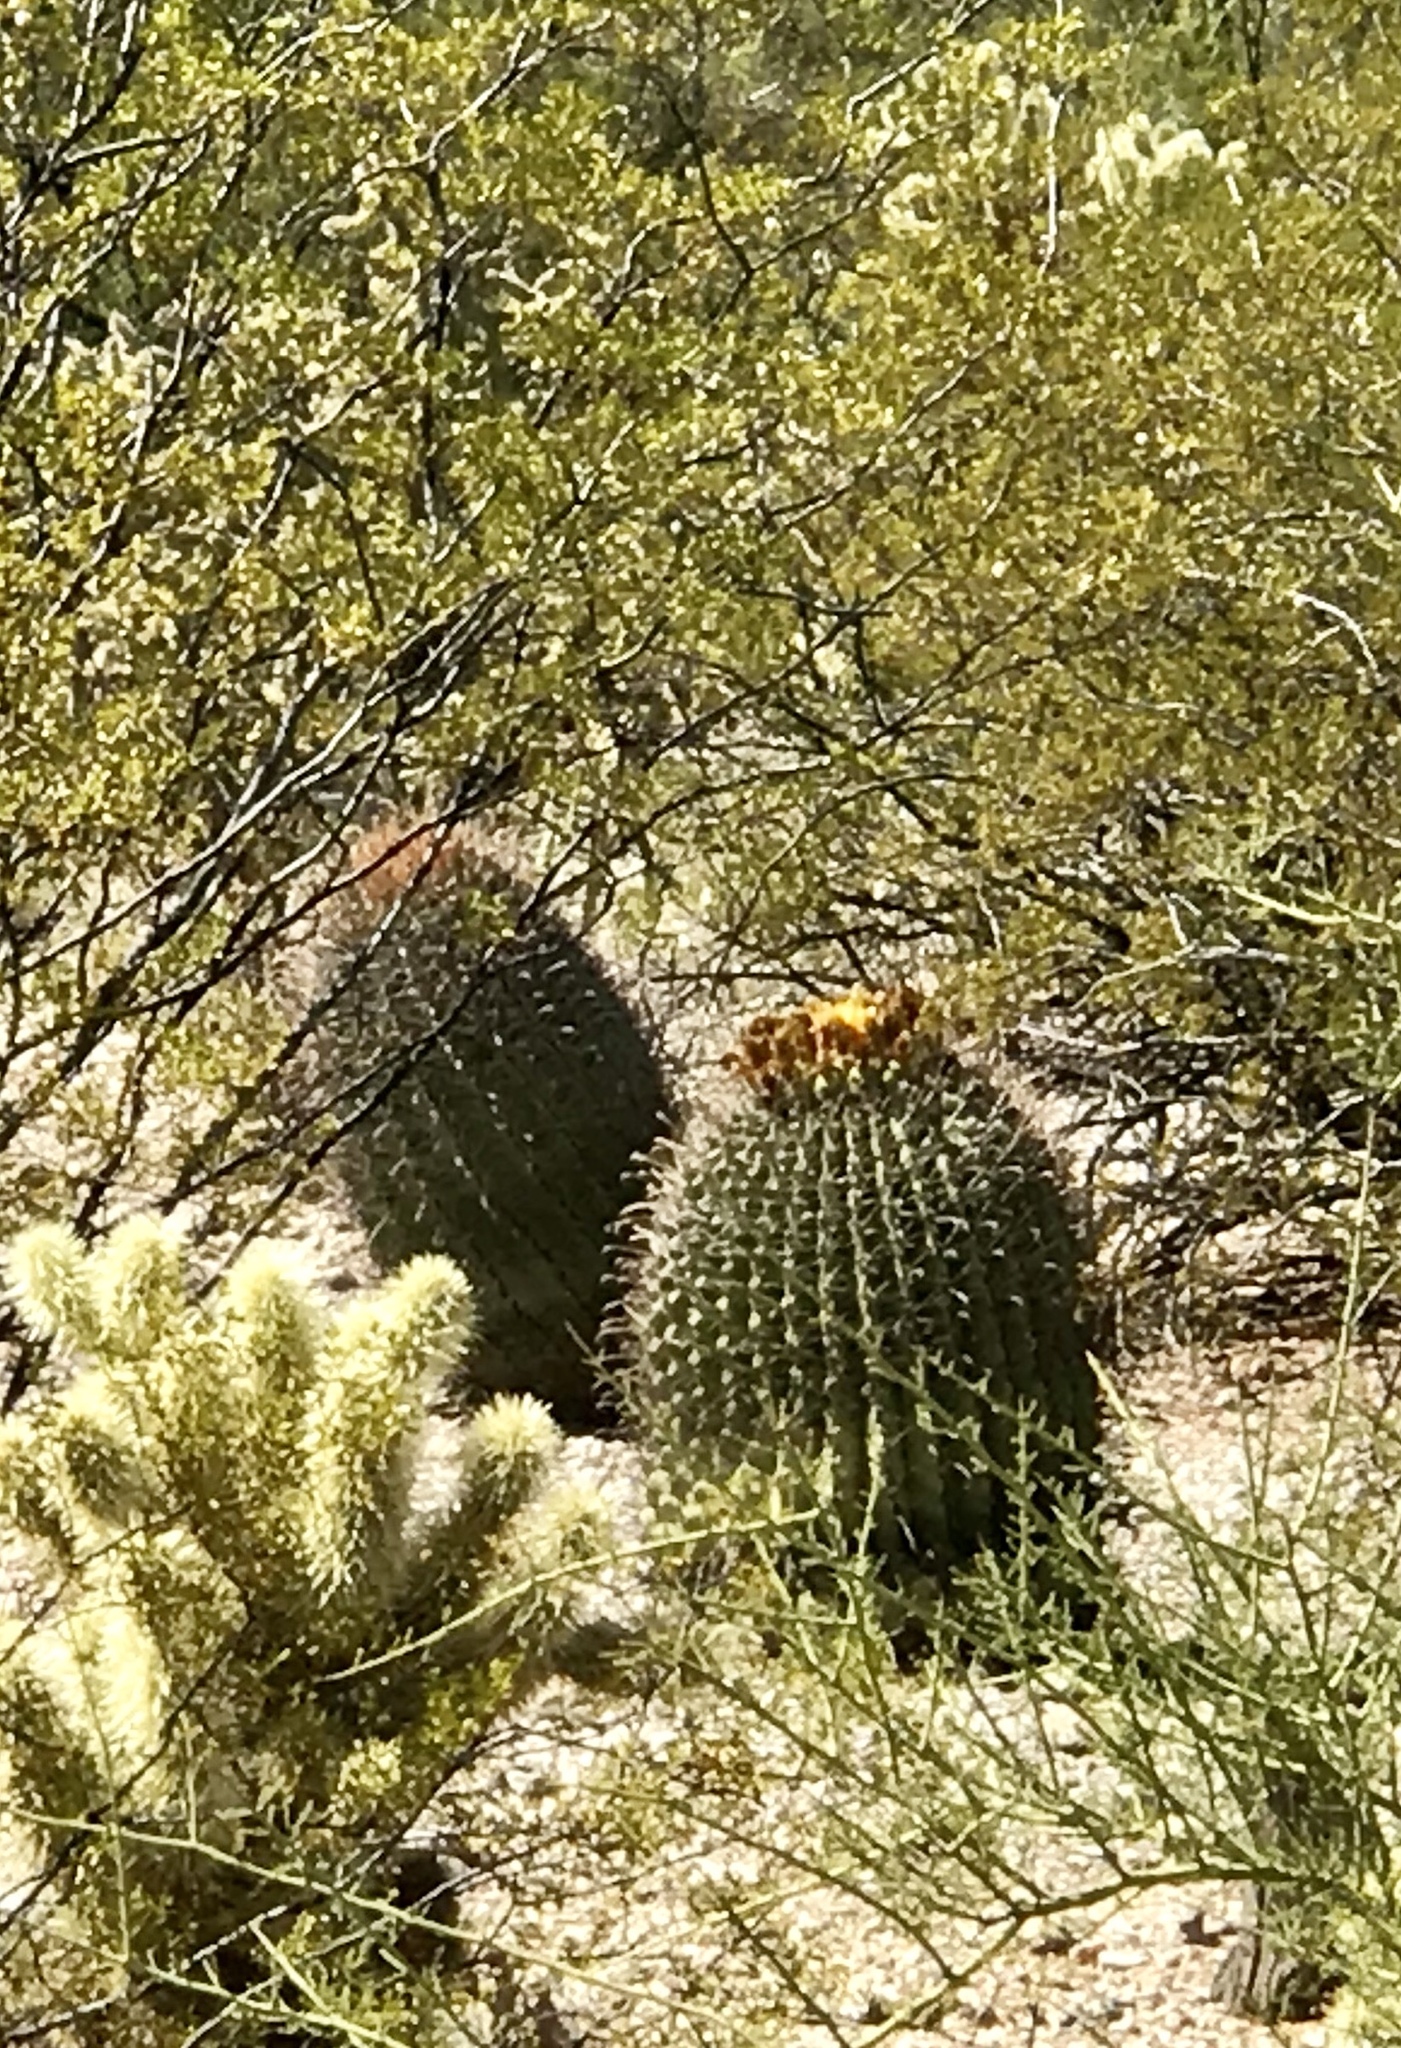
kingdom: Plantae
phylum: Tracheophyta
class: Magnoliopsida
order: Caryophyllales
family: Cactaceae
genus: Ferocactus
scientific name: Ferocactus wislizeni
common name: Candy barrel cactus
